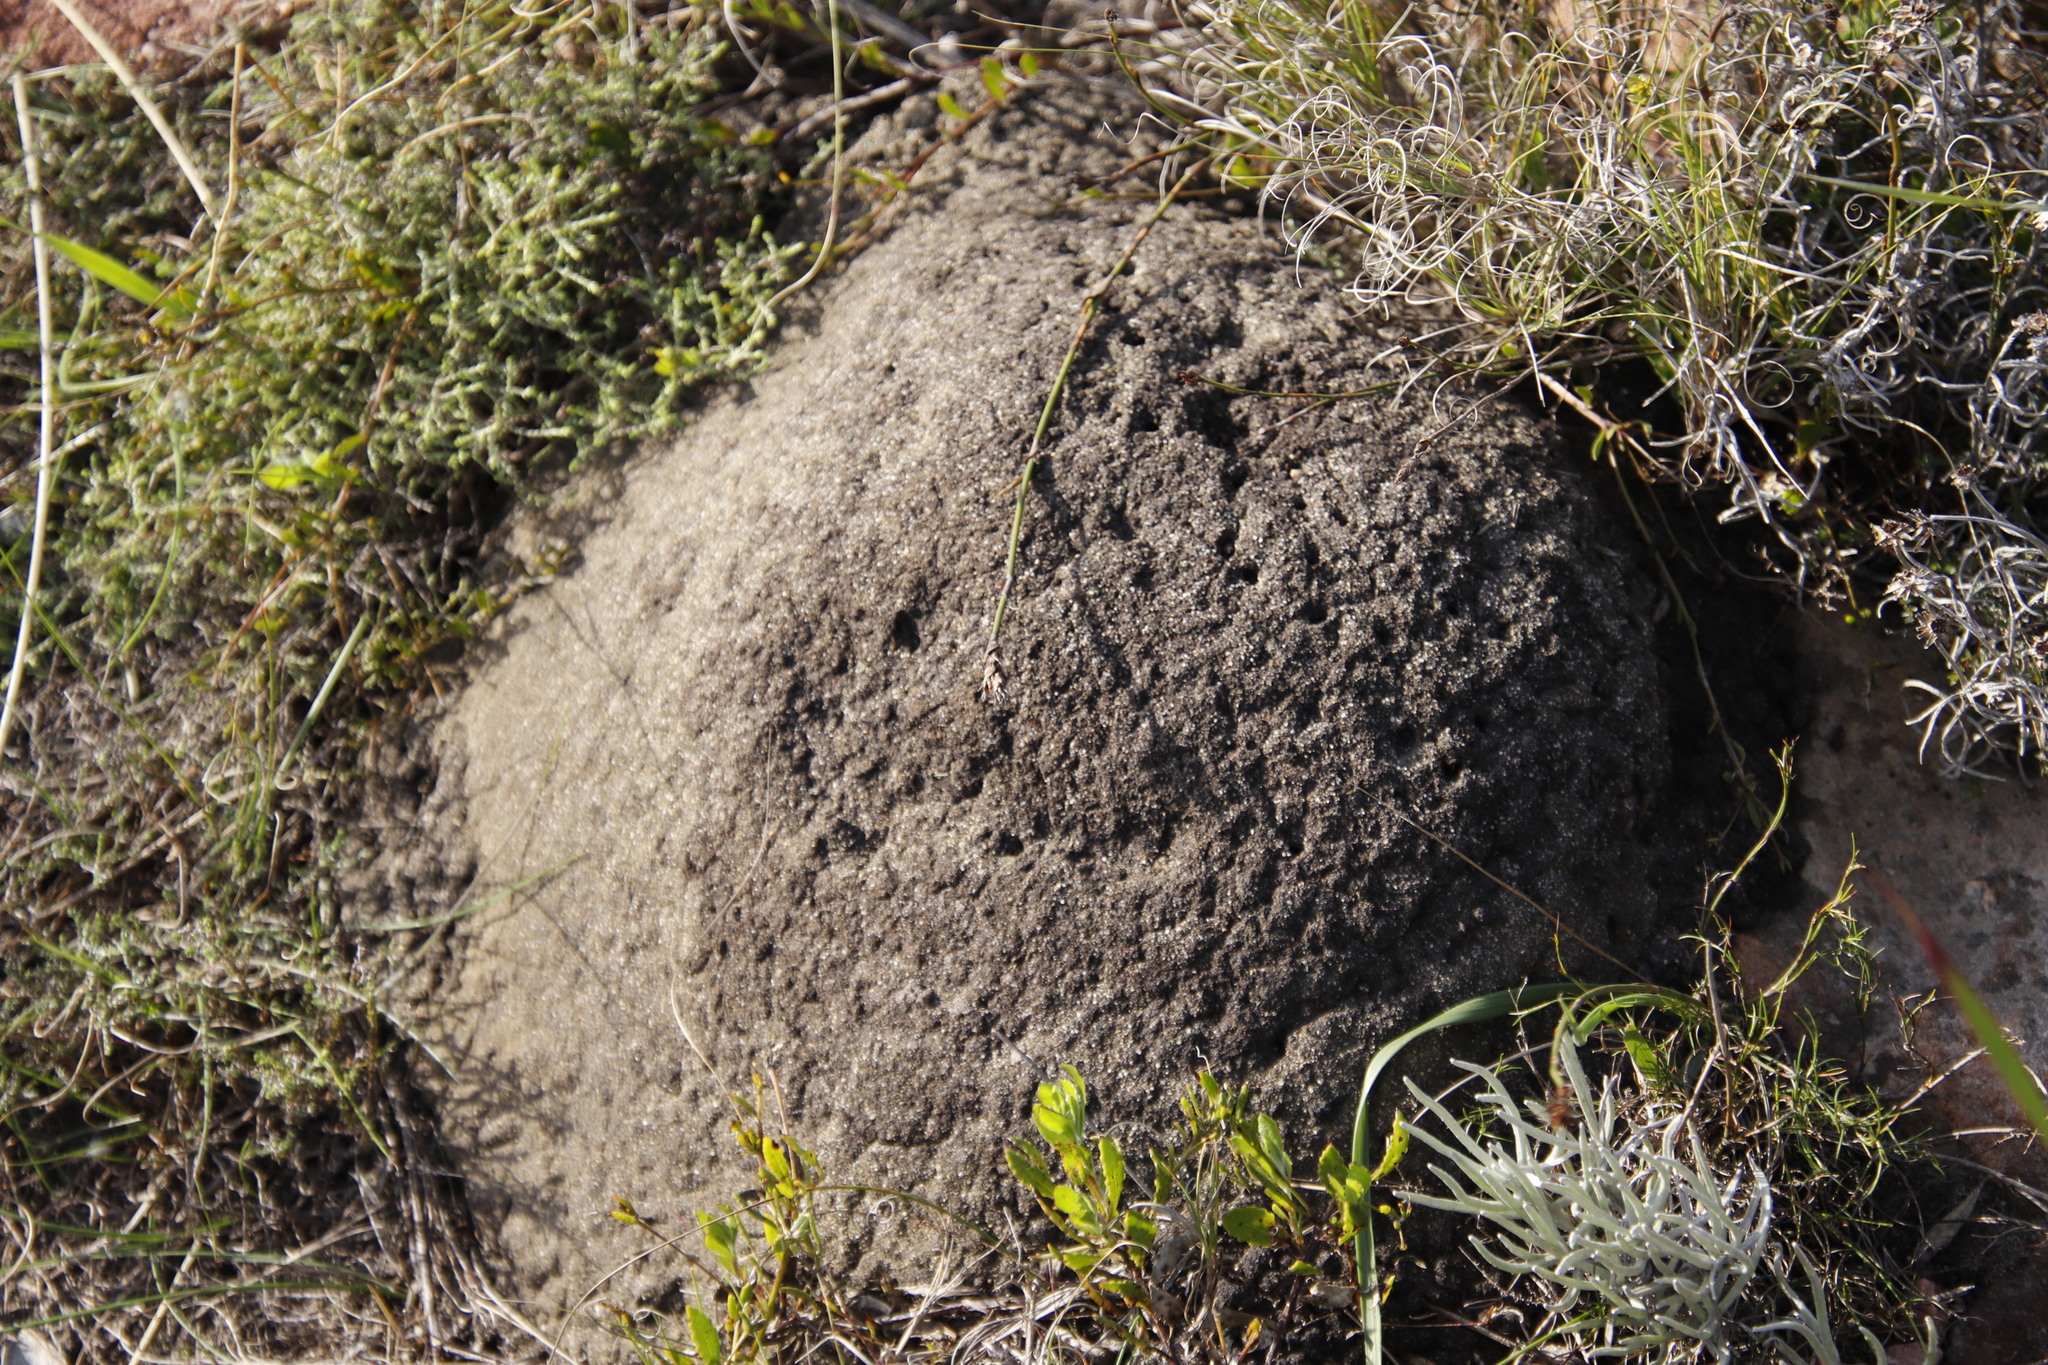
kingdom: Animalia
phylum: Arthropoda
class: Insecta
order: Blattodea
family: Termitidae
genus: Amitermes
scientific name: Amitermes hastatus
